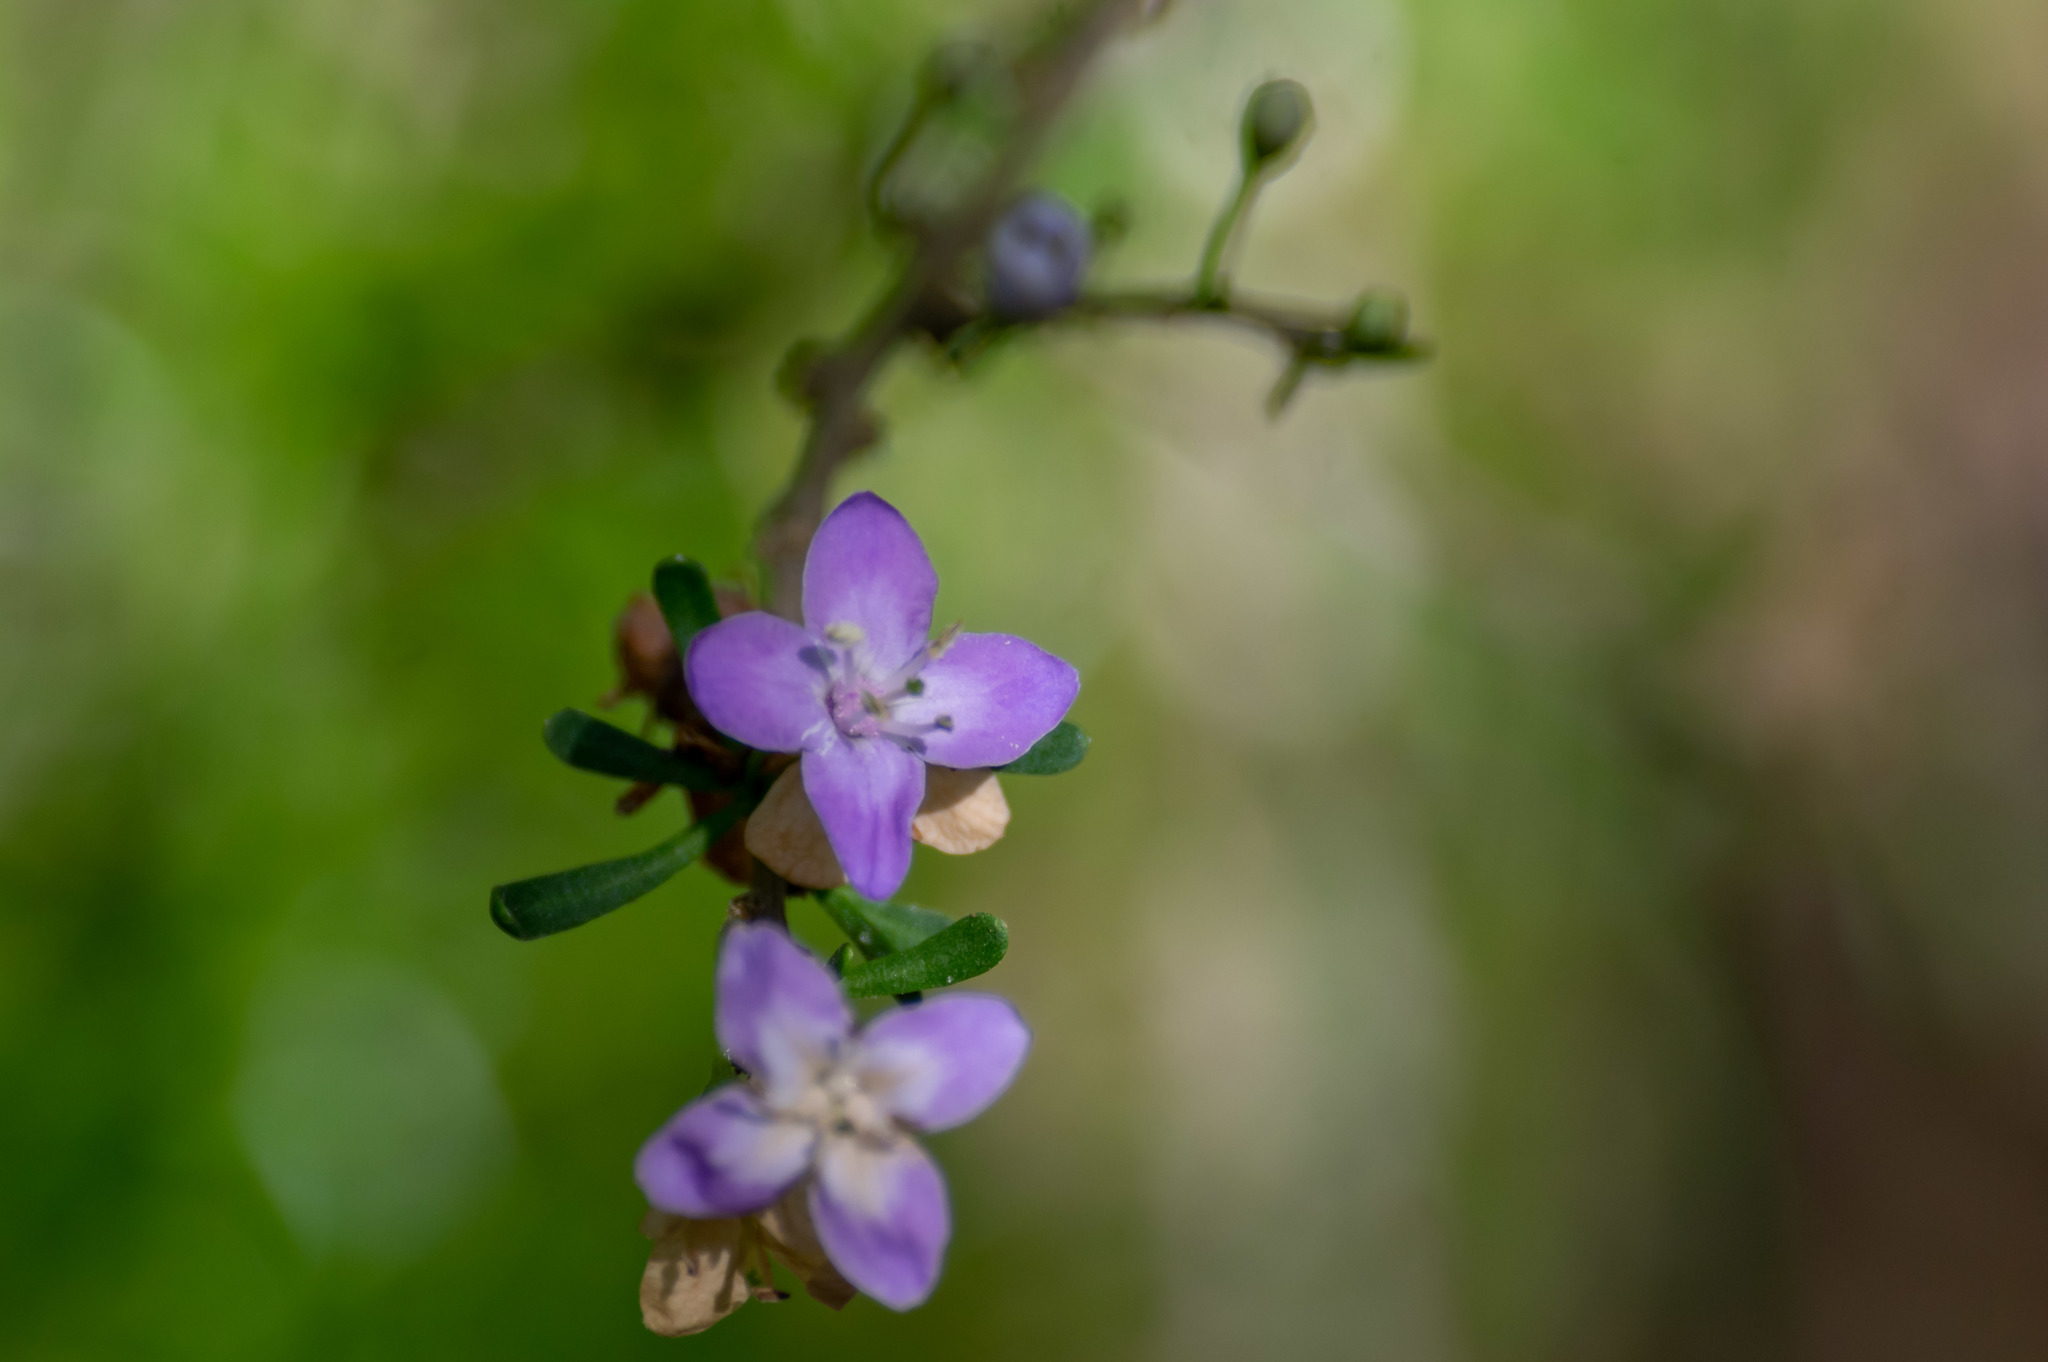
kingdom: Plantae
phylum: Tracheophyta
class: Magnoliopsida
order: Solanales
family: Solanaceae
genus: Lycium
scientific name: Lycium carolinianum
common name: Christmasberry
